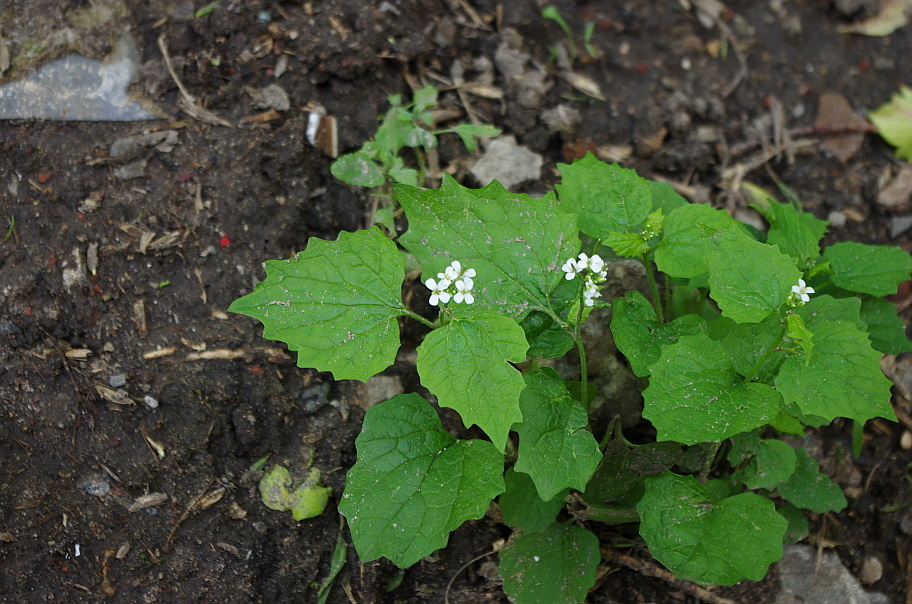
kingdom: Plantae
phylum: Tracheophyta
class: Magnoliopsida
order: Brassicales
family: Brassicaceae
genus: Alliaria
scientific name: Alliaria petiolata
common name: Garlic mustard
